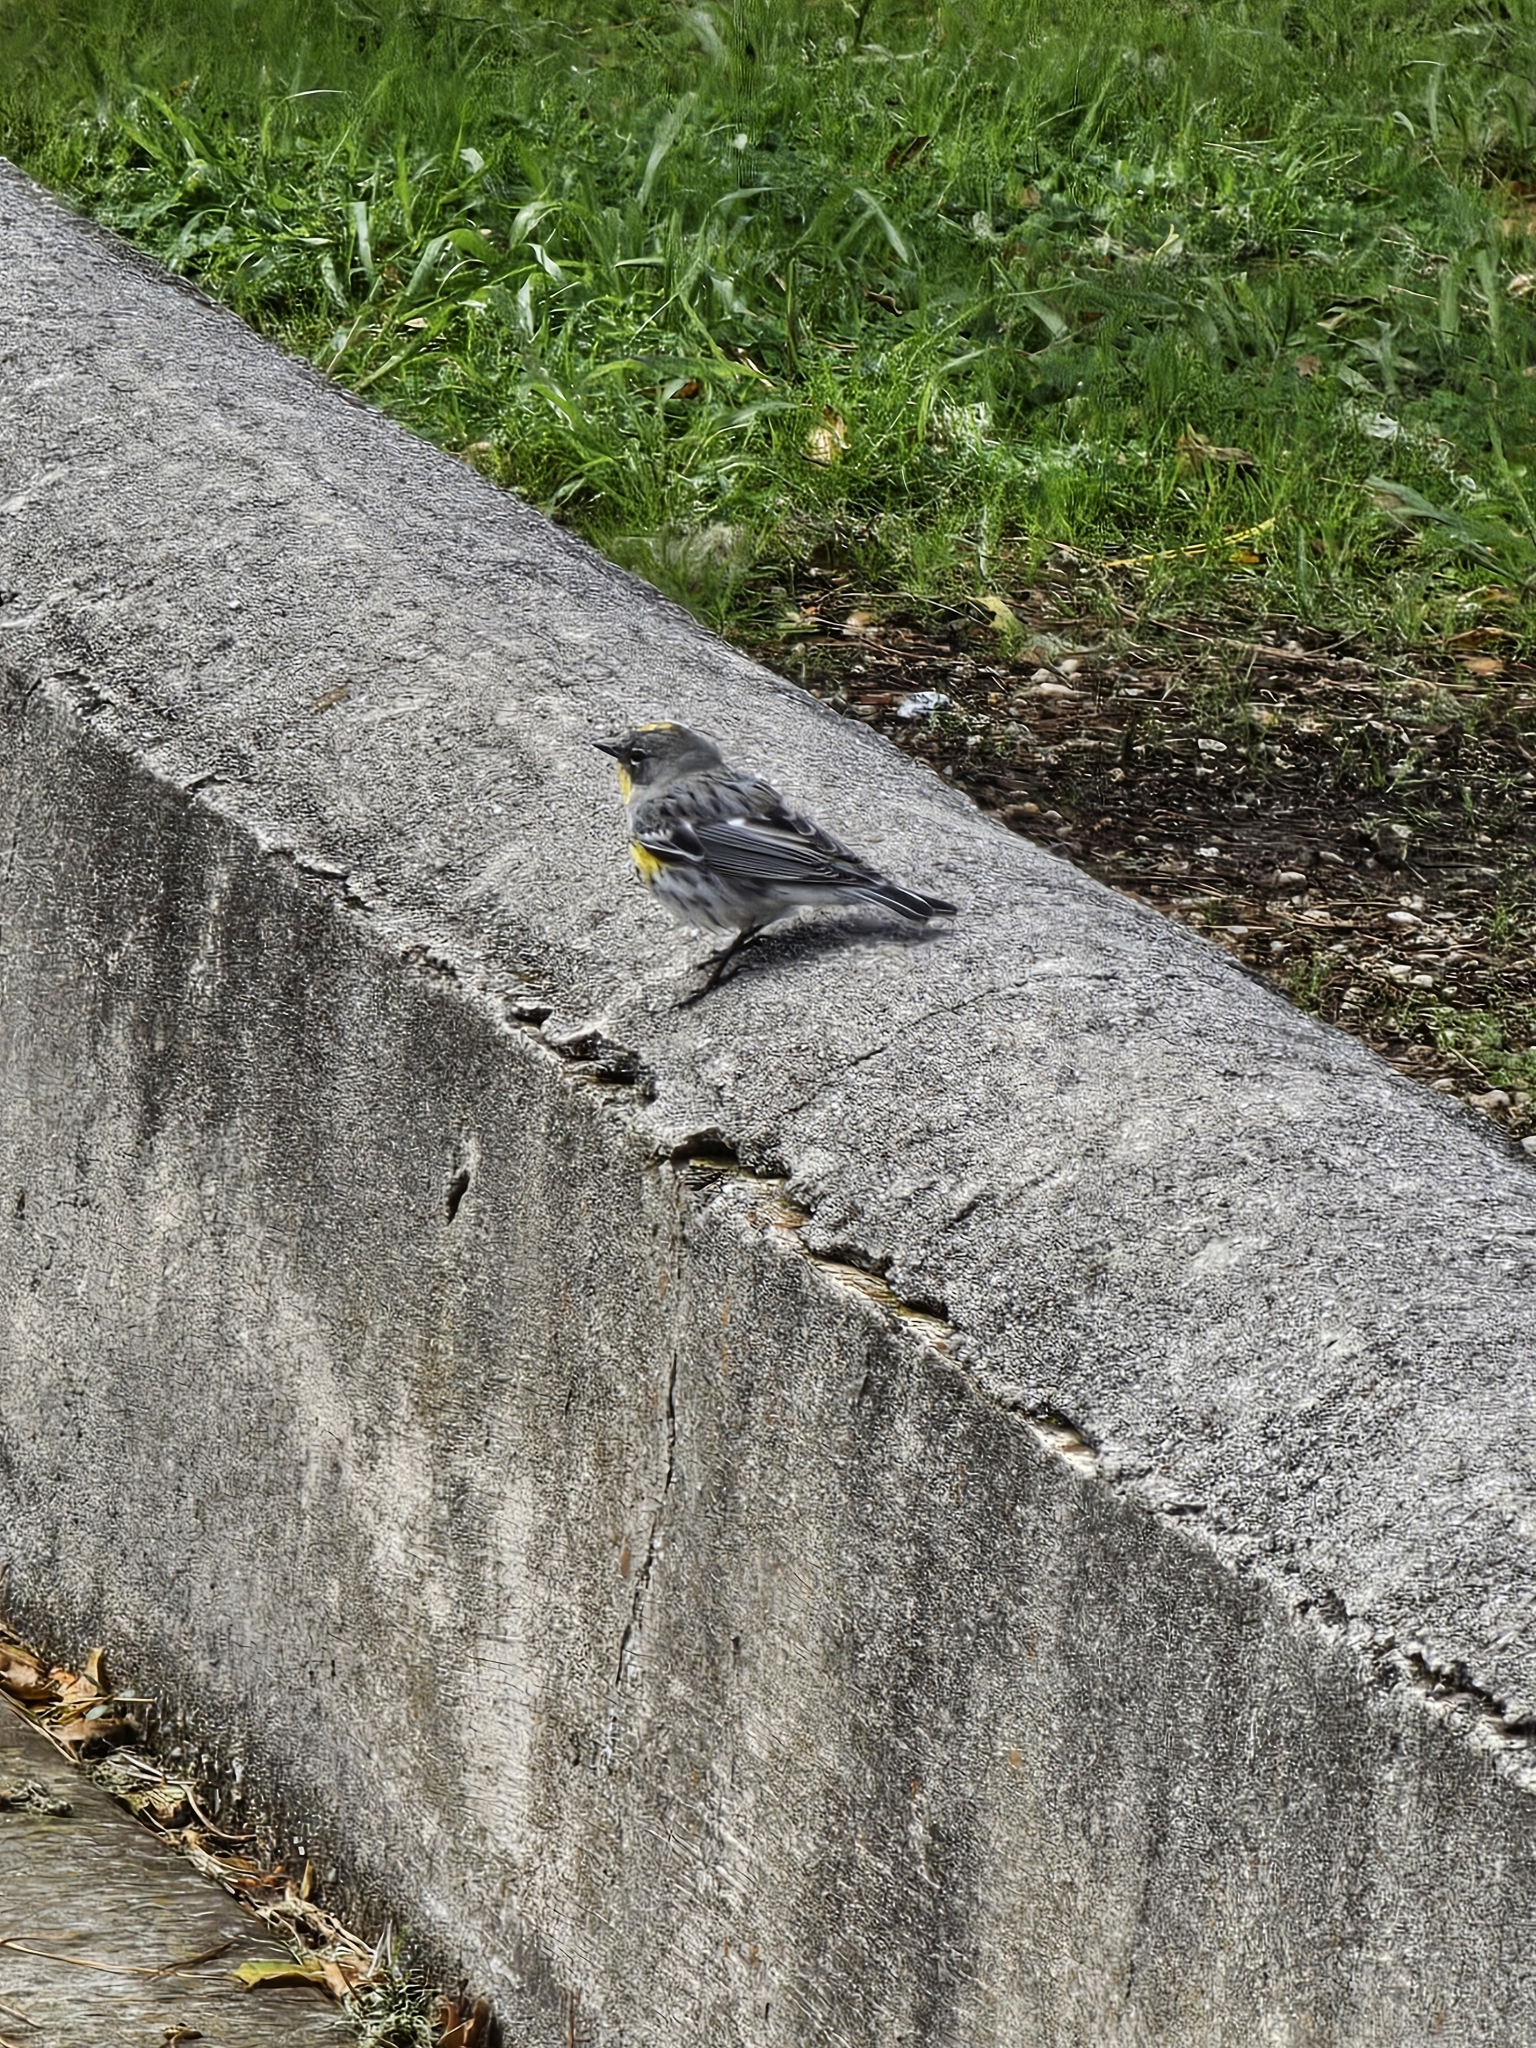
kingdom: Animalia
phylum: Chordata
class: Aves
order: Passeriformes
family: Parulidae
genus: Setophaga
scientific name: Setophaga auduboni
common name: Audubon's warbler
